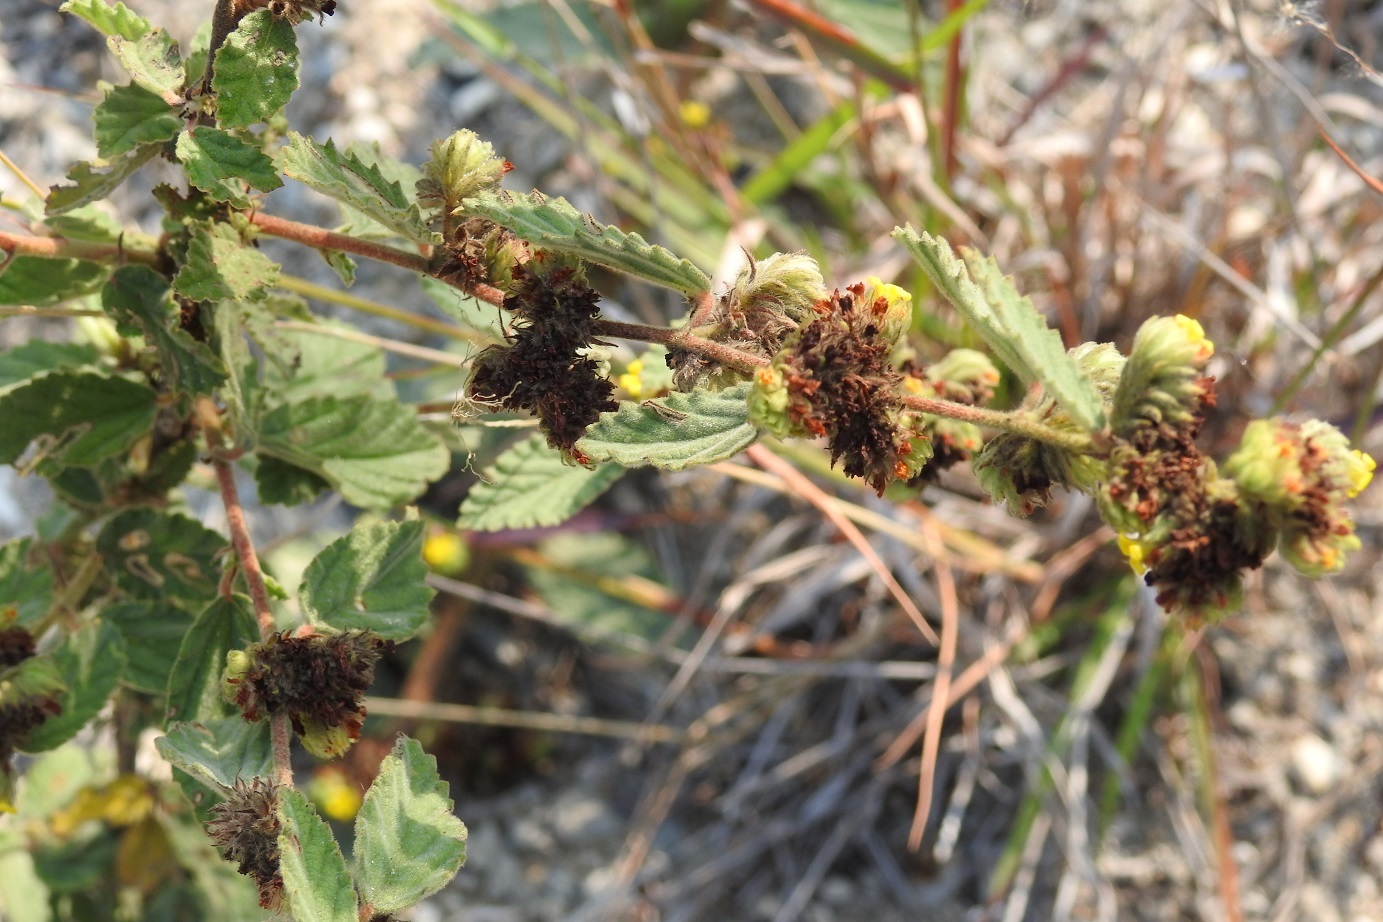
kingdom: Plantae
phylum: Tracheophyta
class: Magnoliopsida
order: Malvales
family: Malvaceae
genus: Waltheria
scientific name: Waltheria indica
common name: Leather-coat
